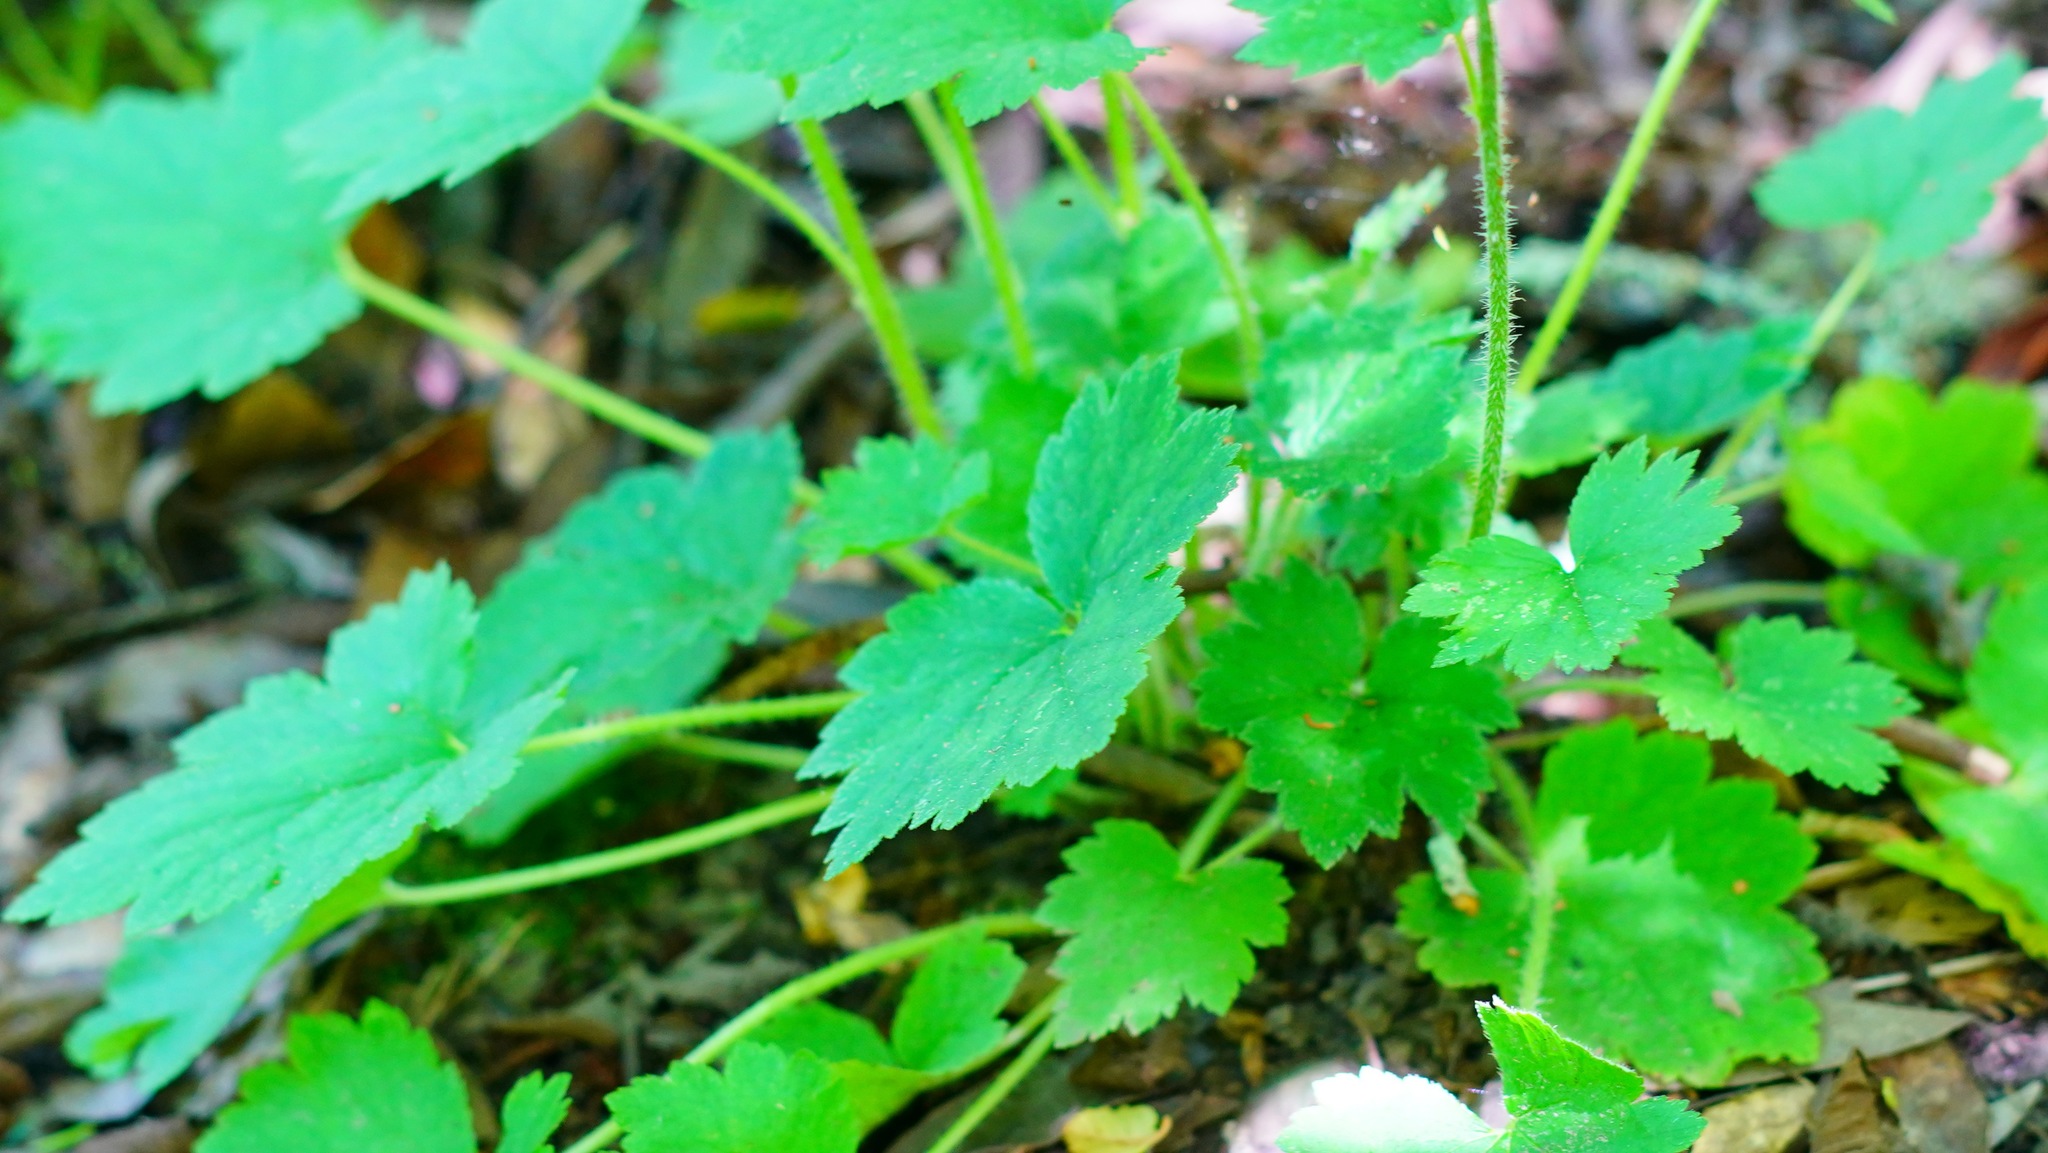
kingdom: Plantae
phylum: Tracheophyta
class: Magnoliopsida
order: Saxifragales
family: Saxifragaceae
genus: Tellima
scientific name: Tellima grandiflora
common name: Fringecups
